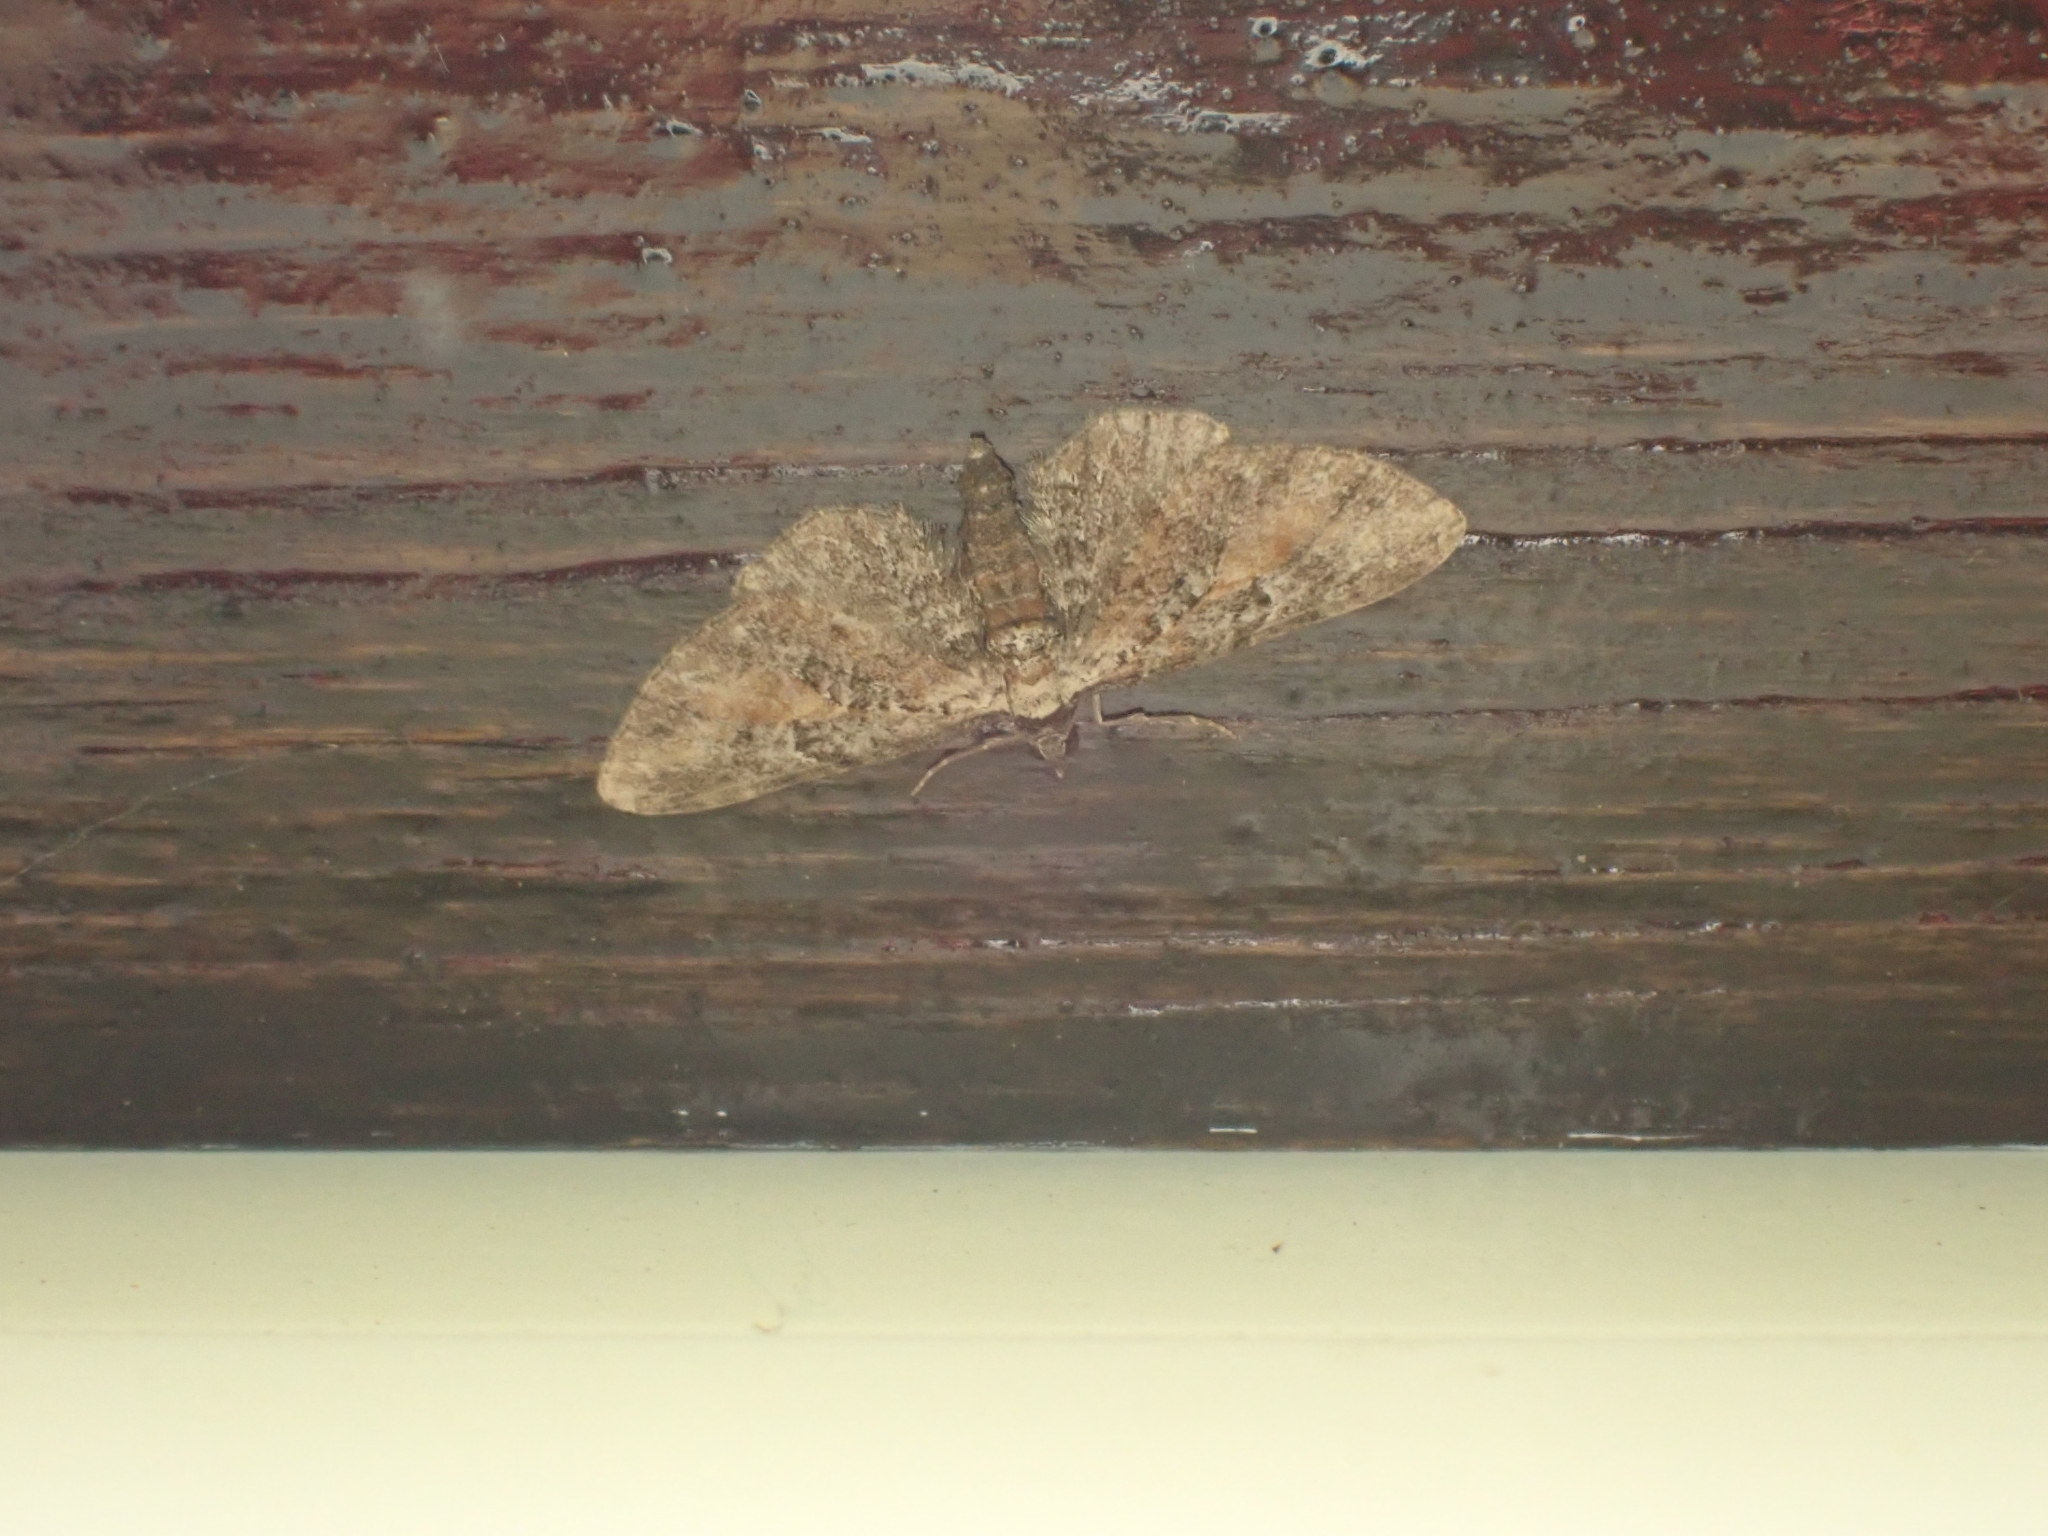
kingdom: Animalia
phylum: Arthropoda
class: Insecta
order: Lepidoptera
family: Geometridae
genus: Eupithecia
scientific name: Eupithecia icterata
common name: Tawny speckled pug
